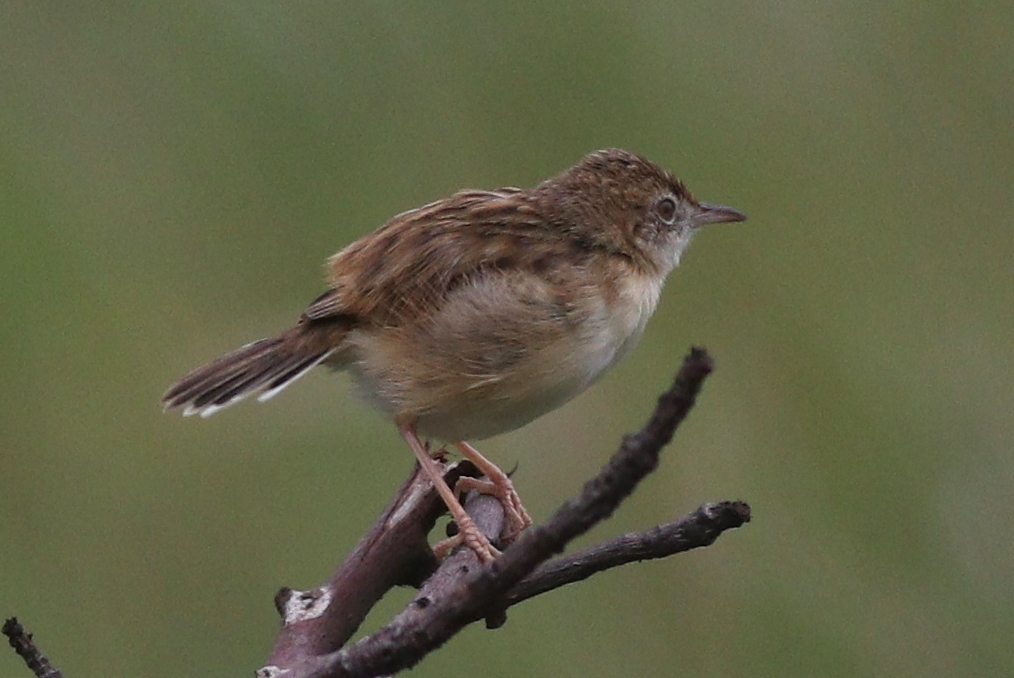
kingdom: Animalia
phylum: Chordata
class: Aves
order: Passeriformes
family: Cisticolidae
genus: Cisticola
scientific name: Cisticola juncidis
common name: Zitting cisticola
